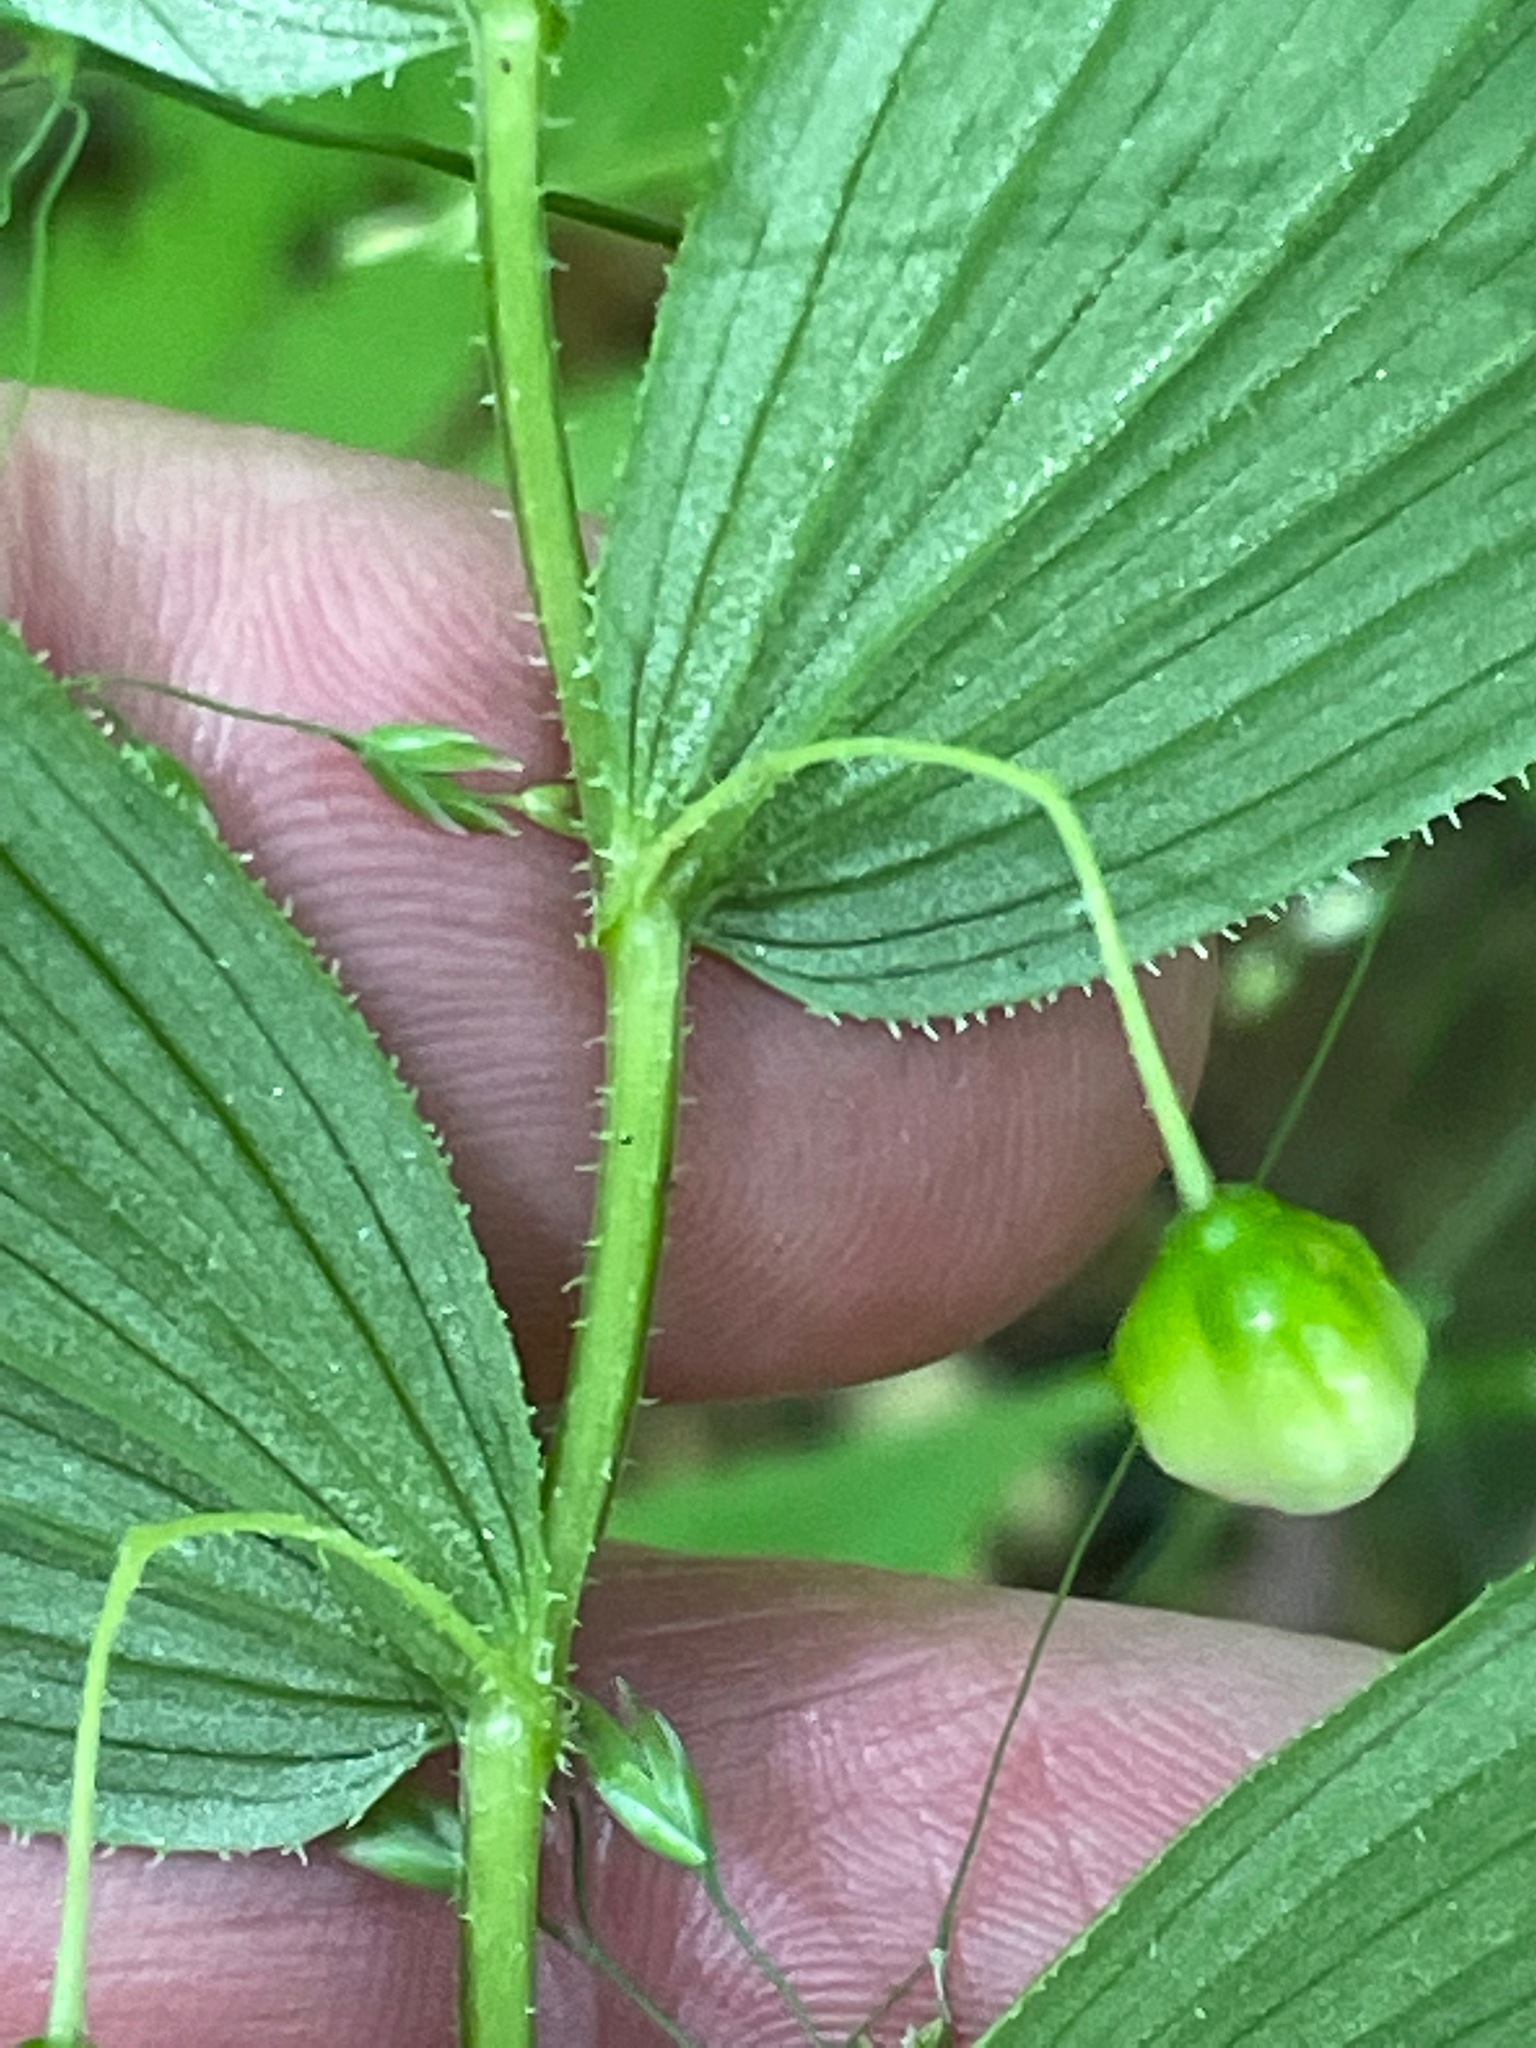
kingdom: Plantae
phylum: Tracheophyta
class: Liliopsida
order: Liliales
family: Liliaceae
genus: Streptopus
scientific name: Streptopus lanceolatus
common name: Rose mandarin
